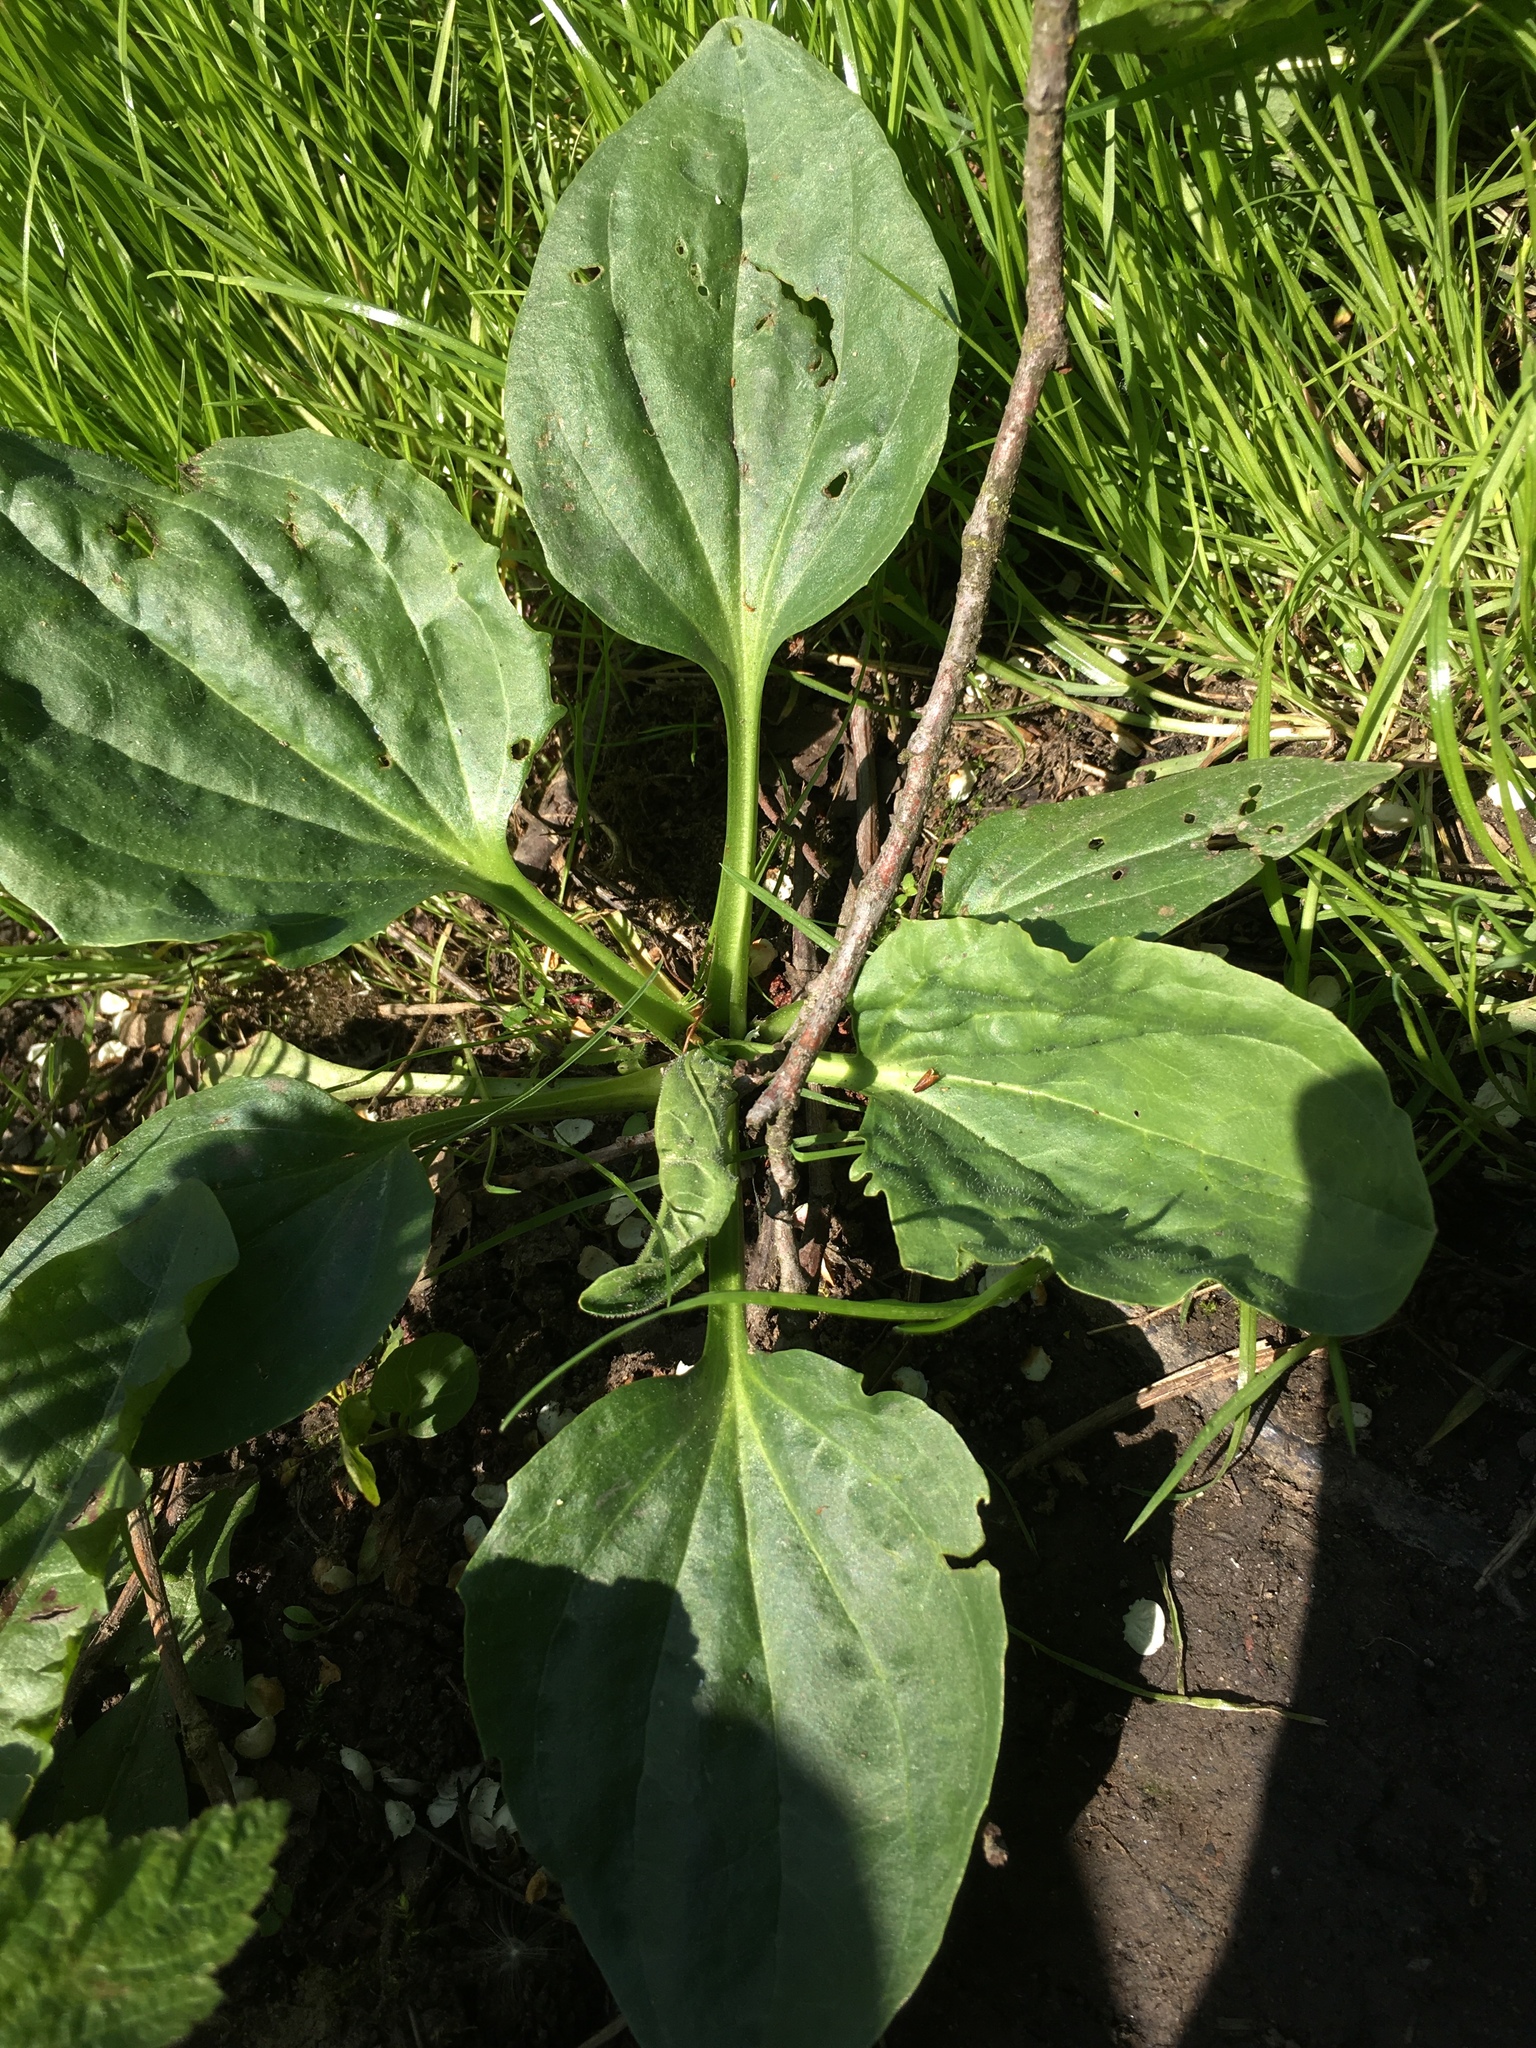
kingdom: Plantae
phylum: Tracheophyta
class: Magnoliopsida
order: Lamiales
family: Plantaginaceae
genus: Plantago
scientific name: Plantago major
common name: Common plantain
